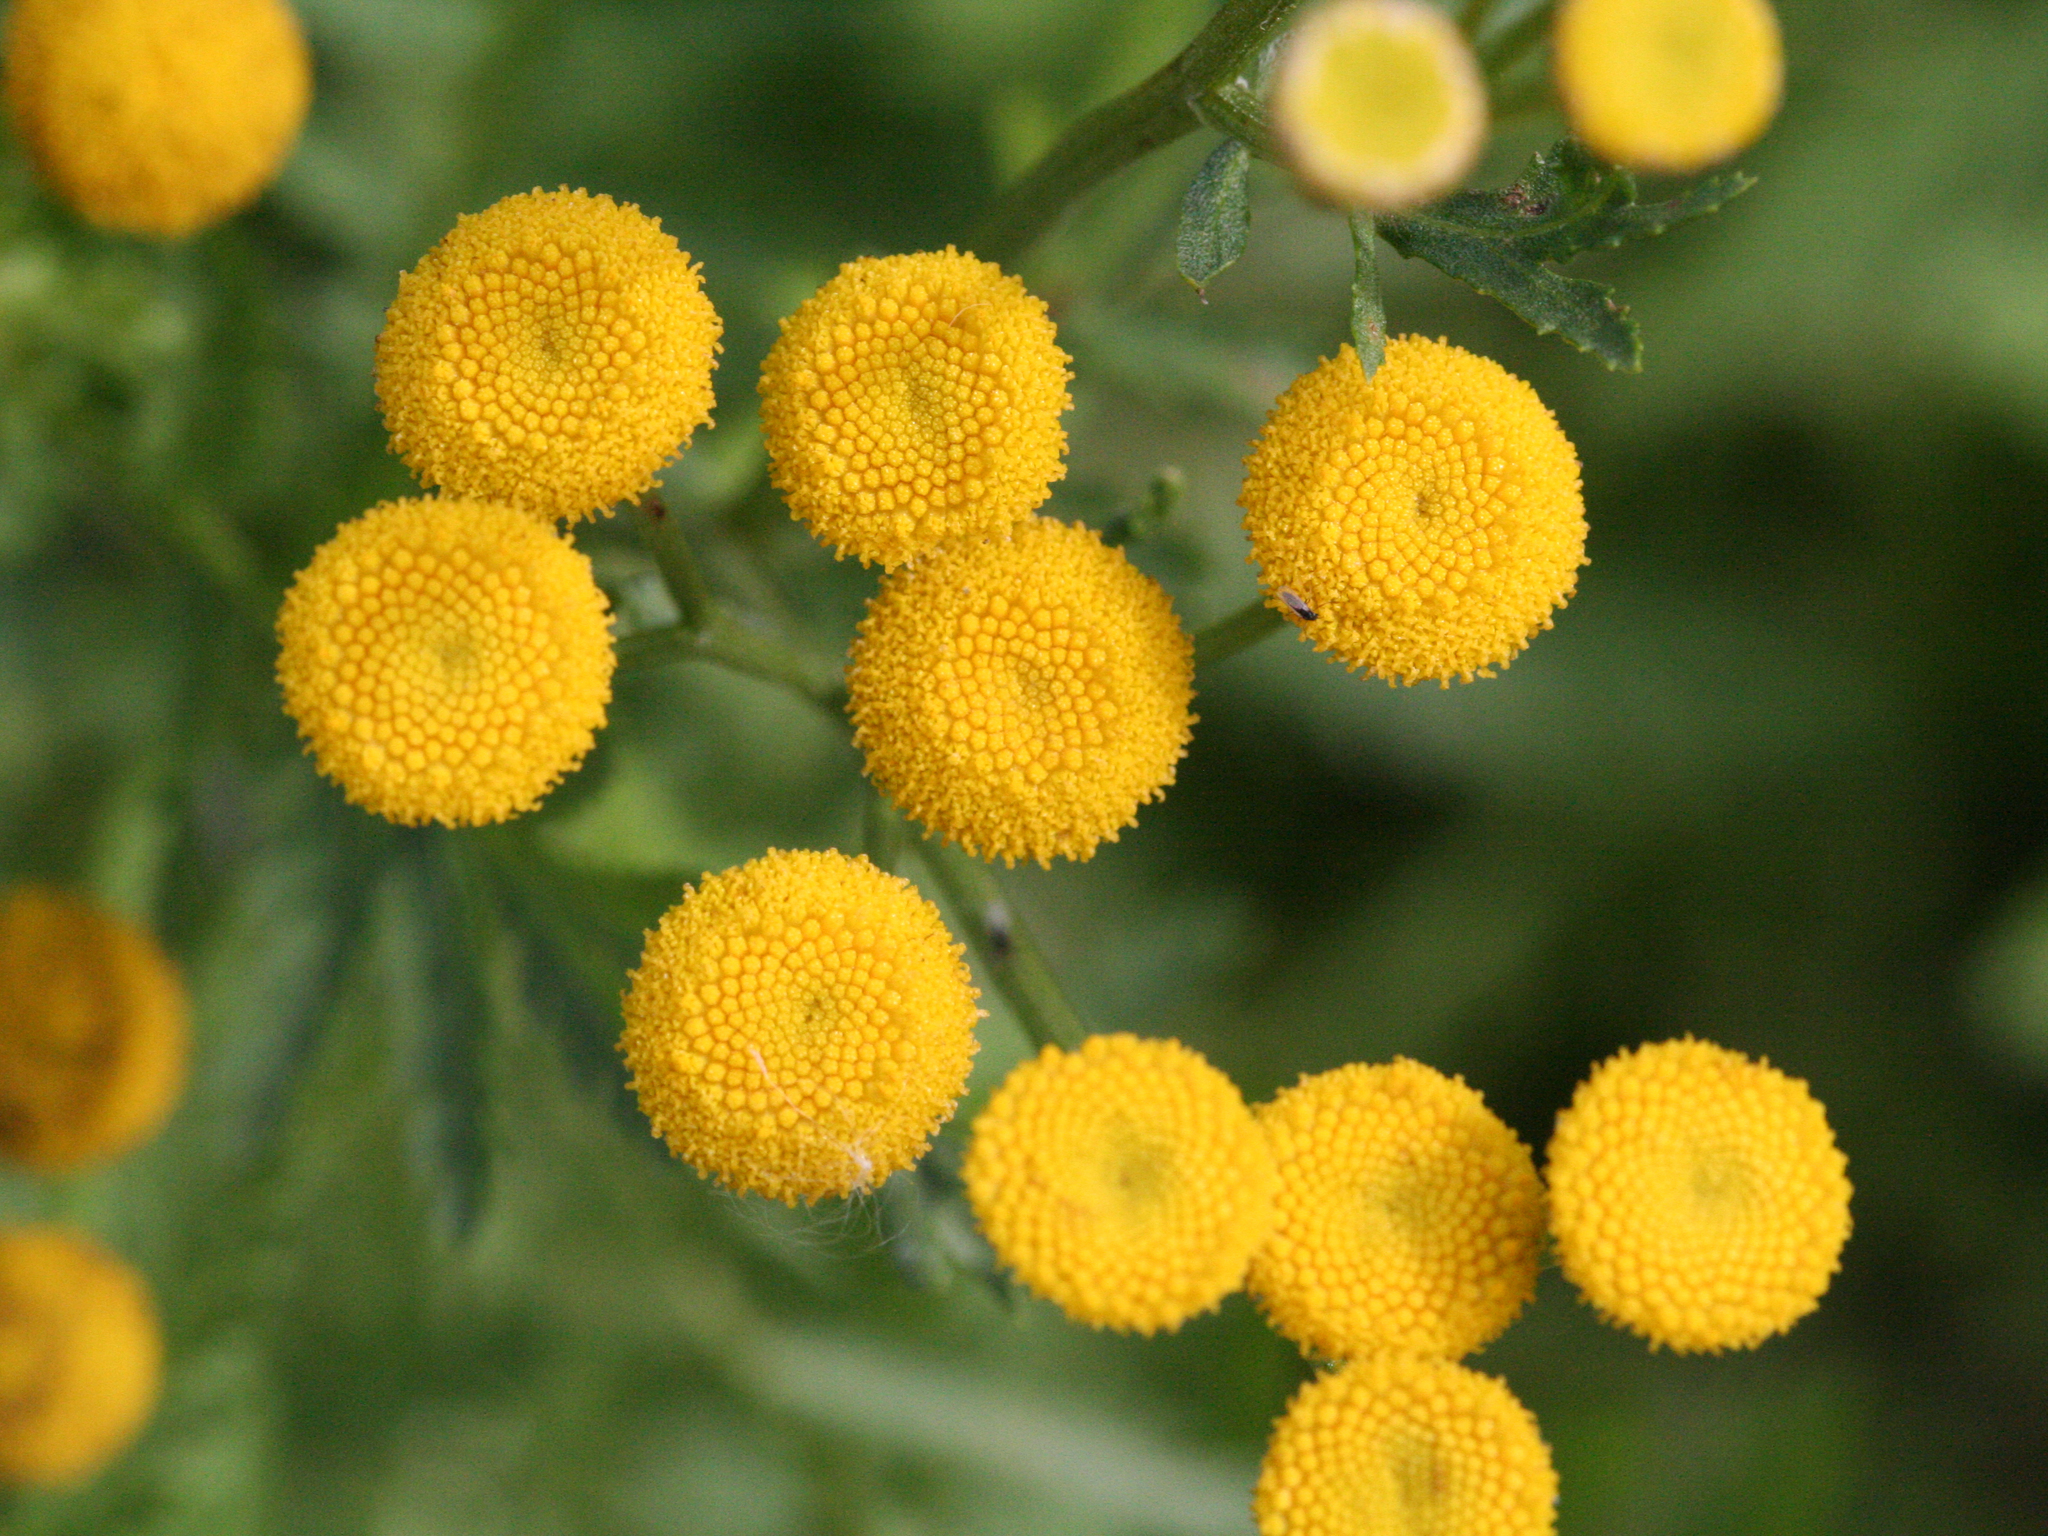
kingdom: Plantae
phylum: Tracheophyta
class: Magnoliopsida
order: Asterales
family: Asteraceae
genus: Tanacetum
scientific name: Tanacetum vulgare
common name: Common tansy
